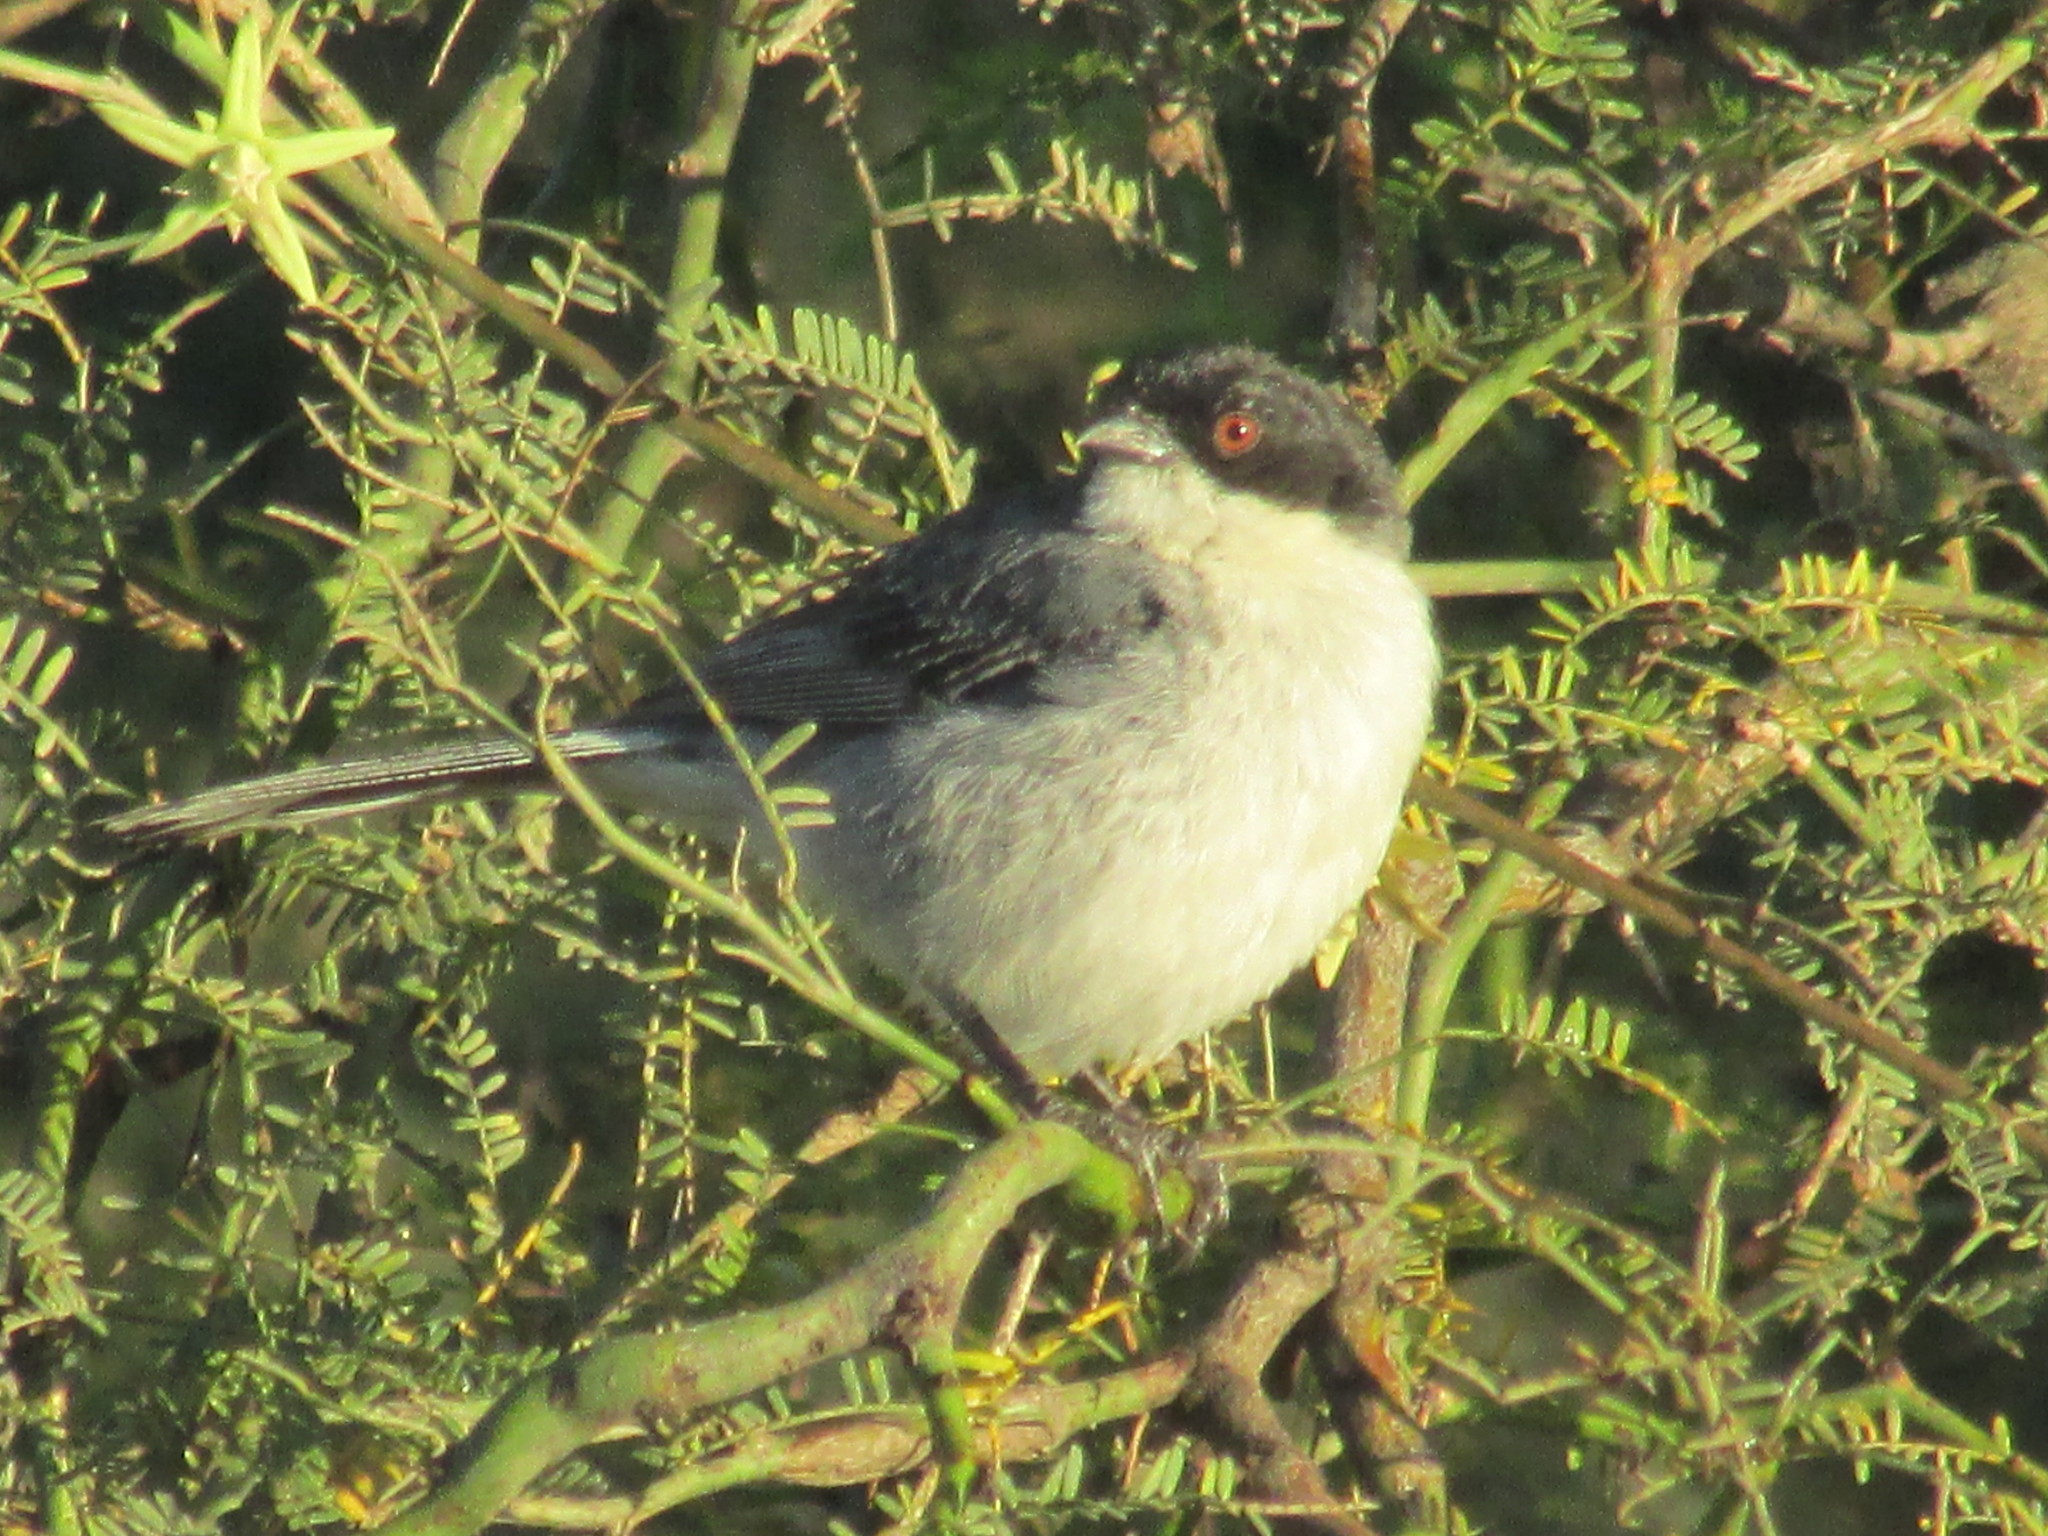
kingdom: Animalia
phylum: Chordata
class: Aves
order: Passeriformes
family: Thraupidae
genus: Microspingus
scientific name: Microspingus melanoleucus
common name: Black-capped warbling-finch
